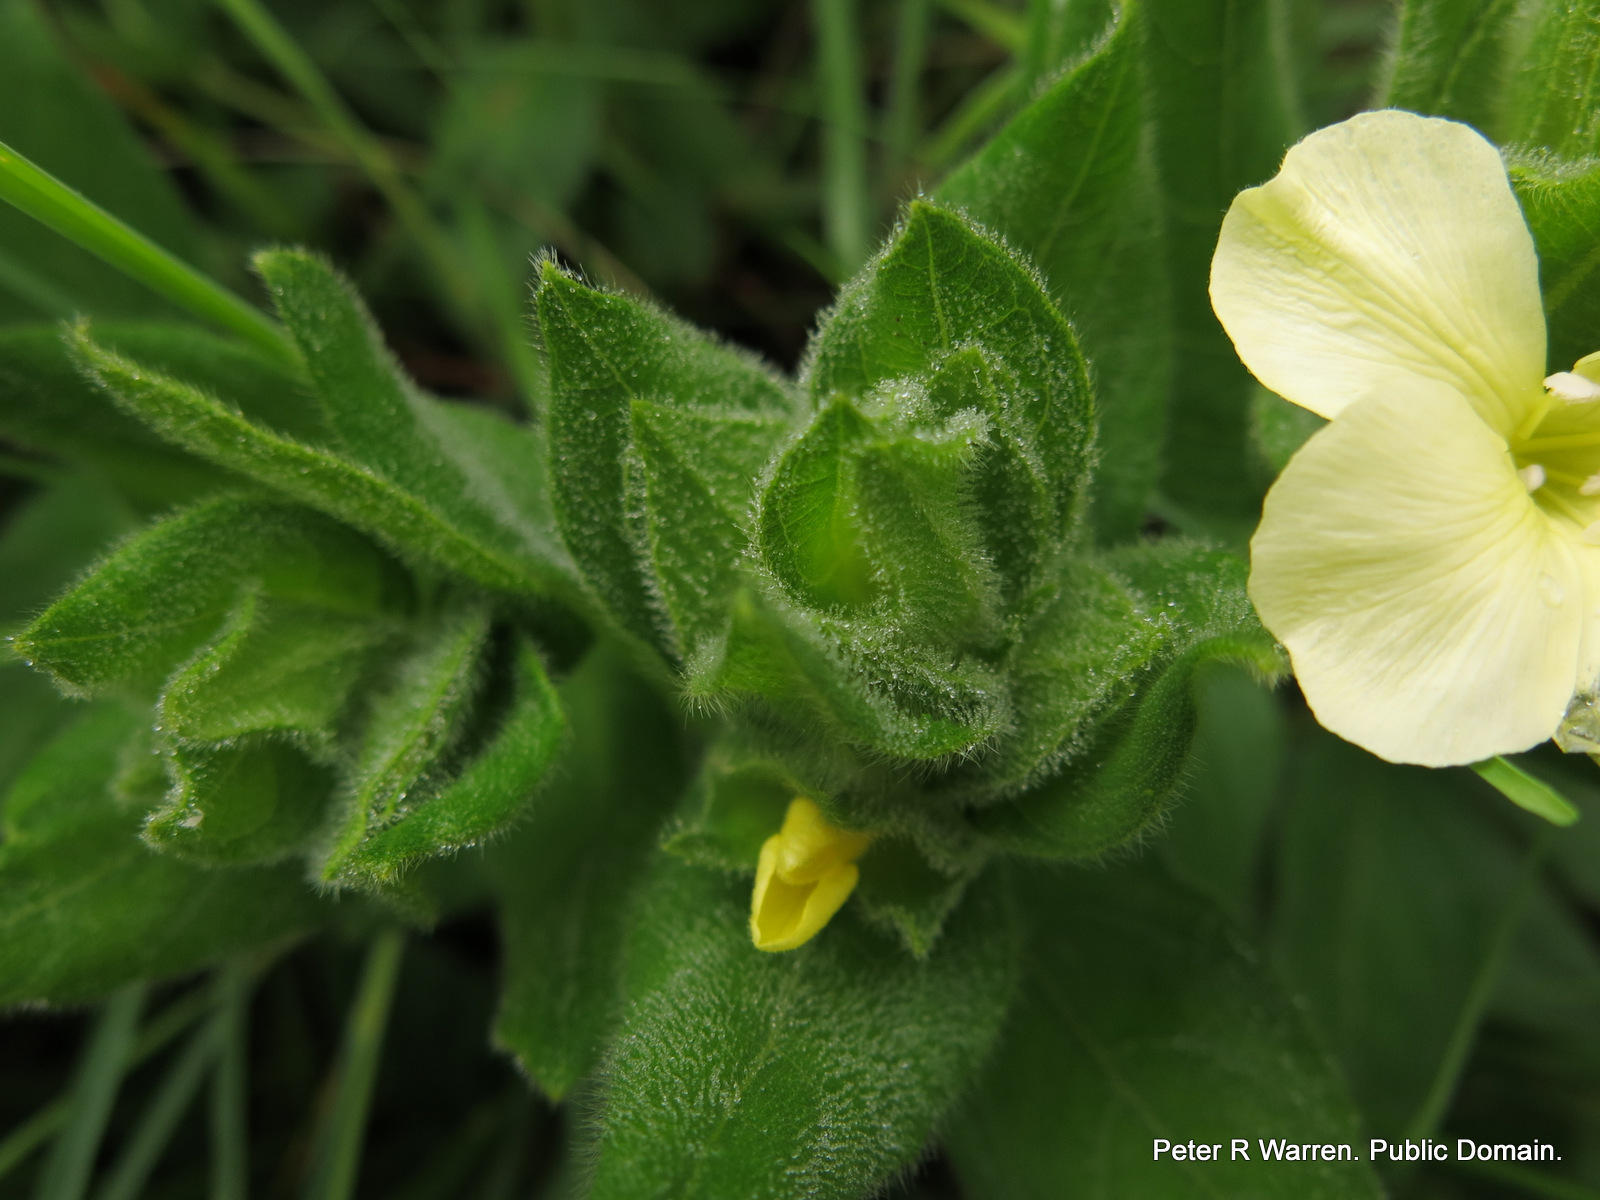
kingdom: Plantae
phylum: Tracheophyta
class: Magnoliopsida
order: Lamiales
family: Acanthaceae
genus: Thunbergia
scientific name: Thunbergia atriplicifolia
